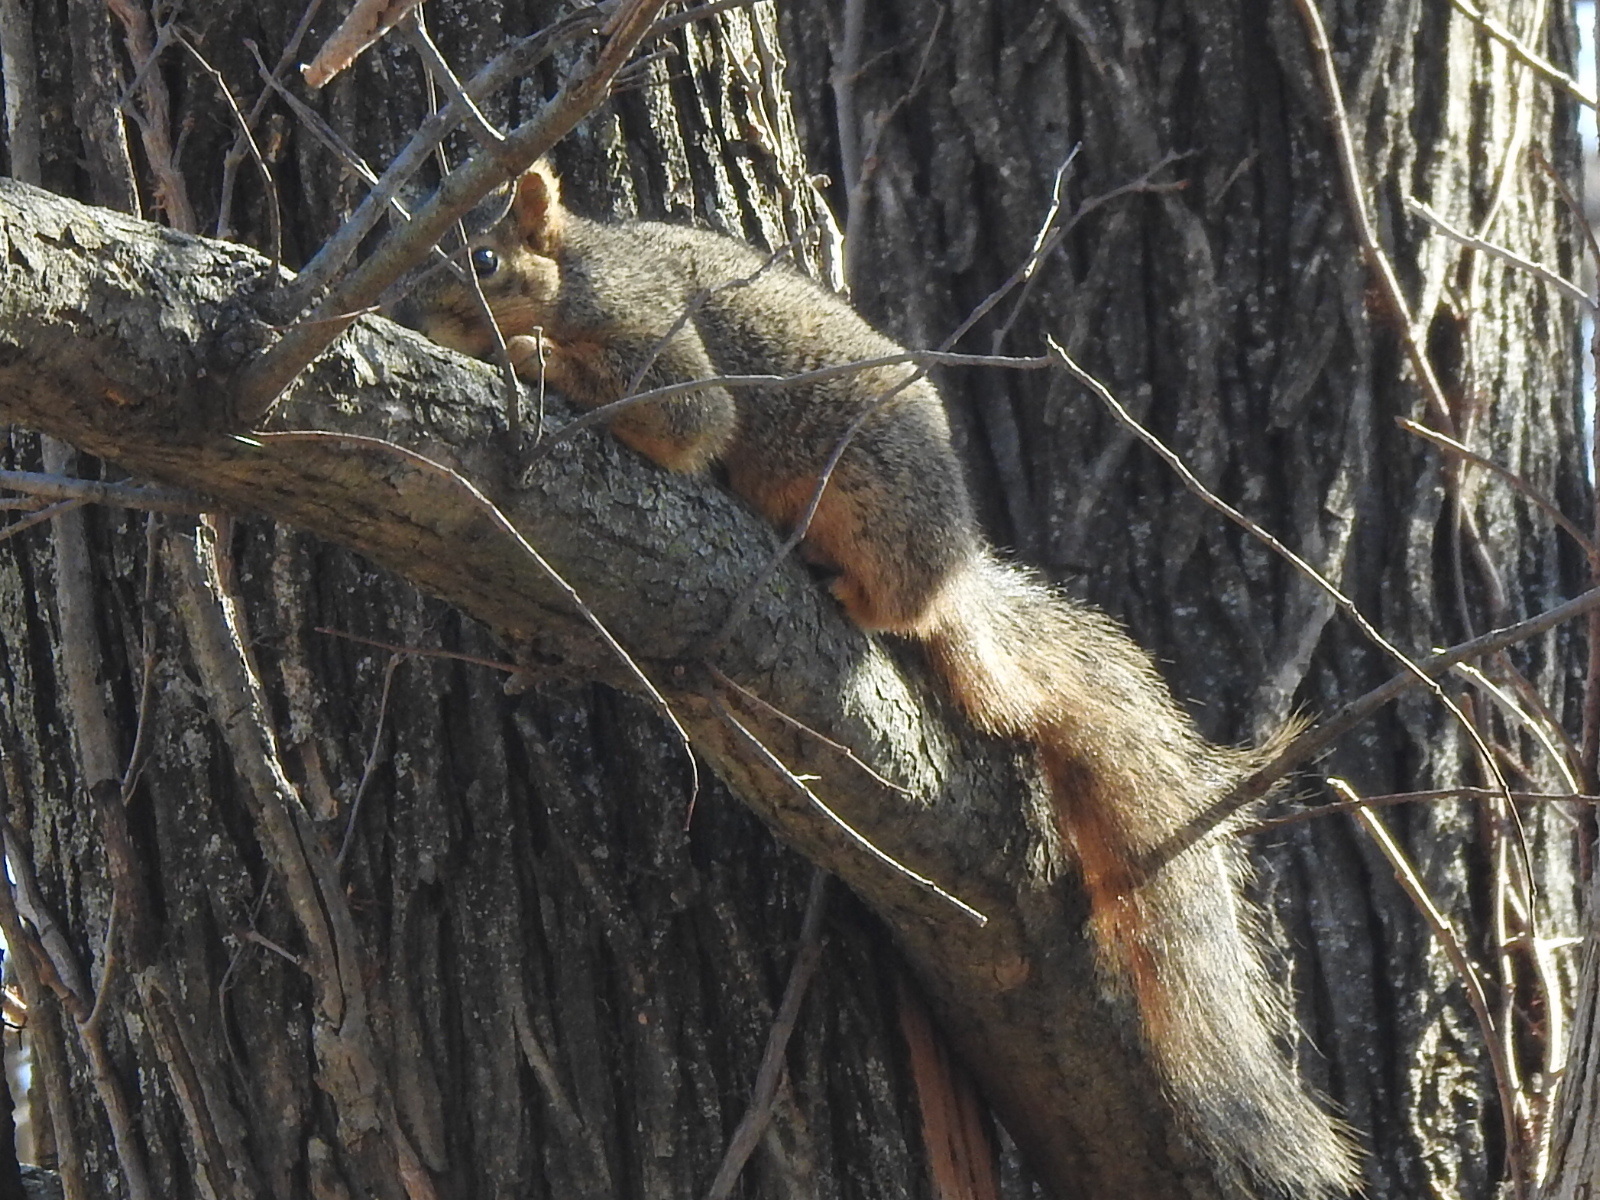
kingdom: Animalia
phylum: Chordata
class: Mammalia
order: Rodentia
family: Sciuridae
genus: Sciurus
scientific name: Sciurus niger
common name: Fox squirrel
